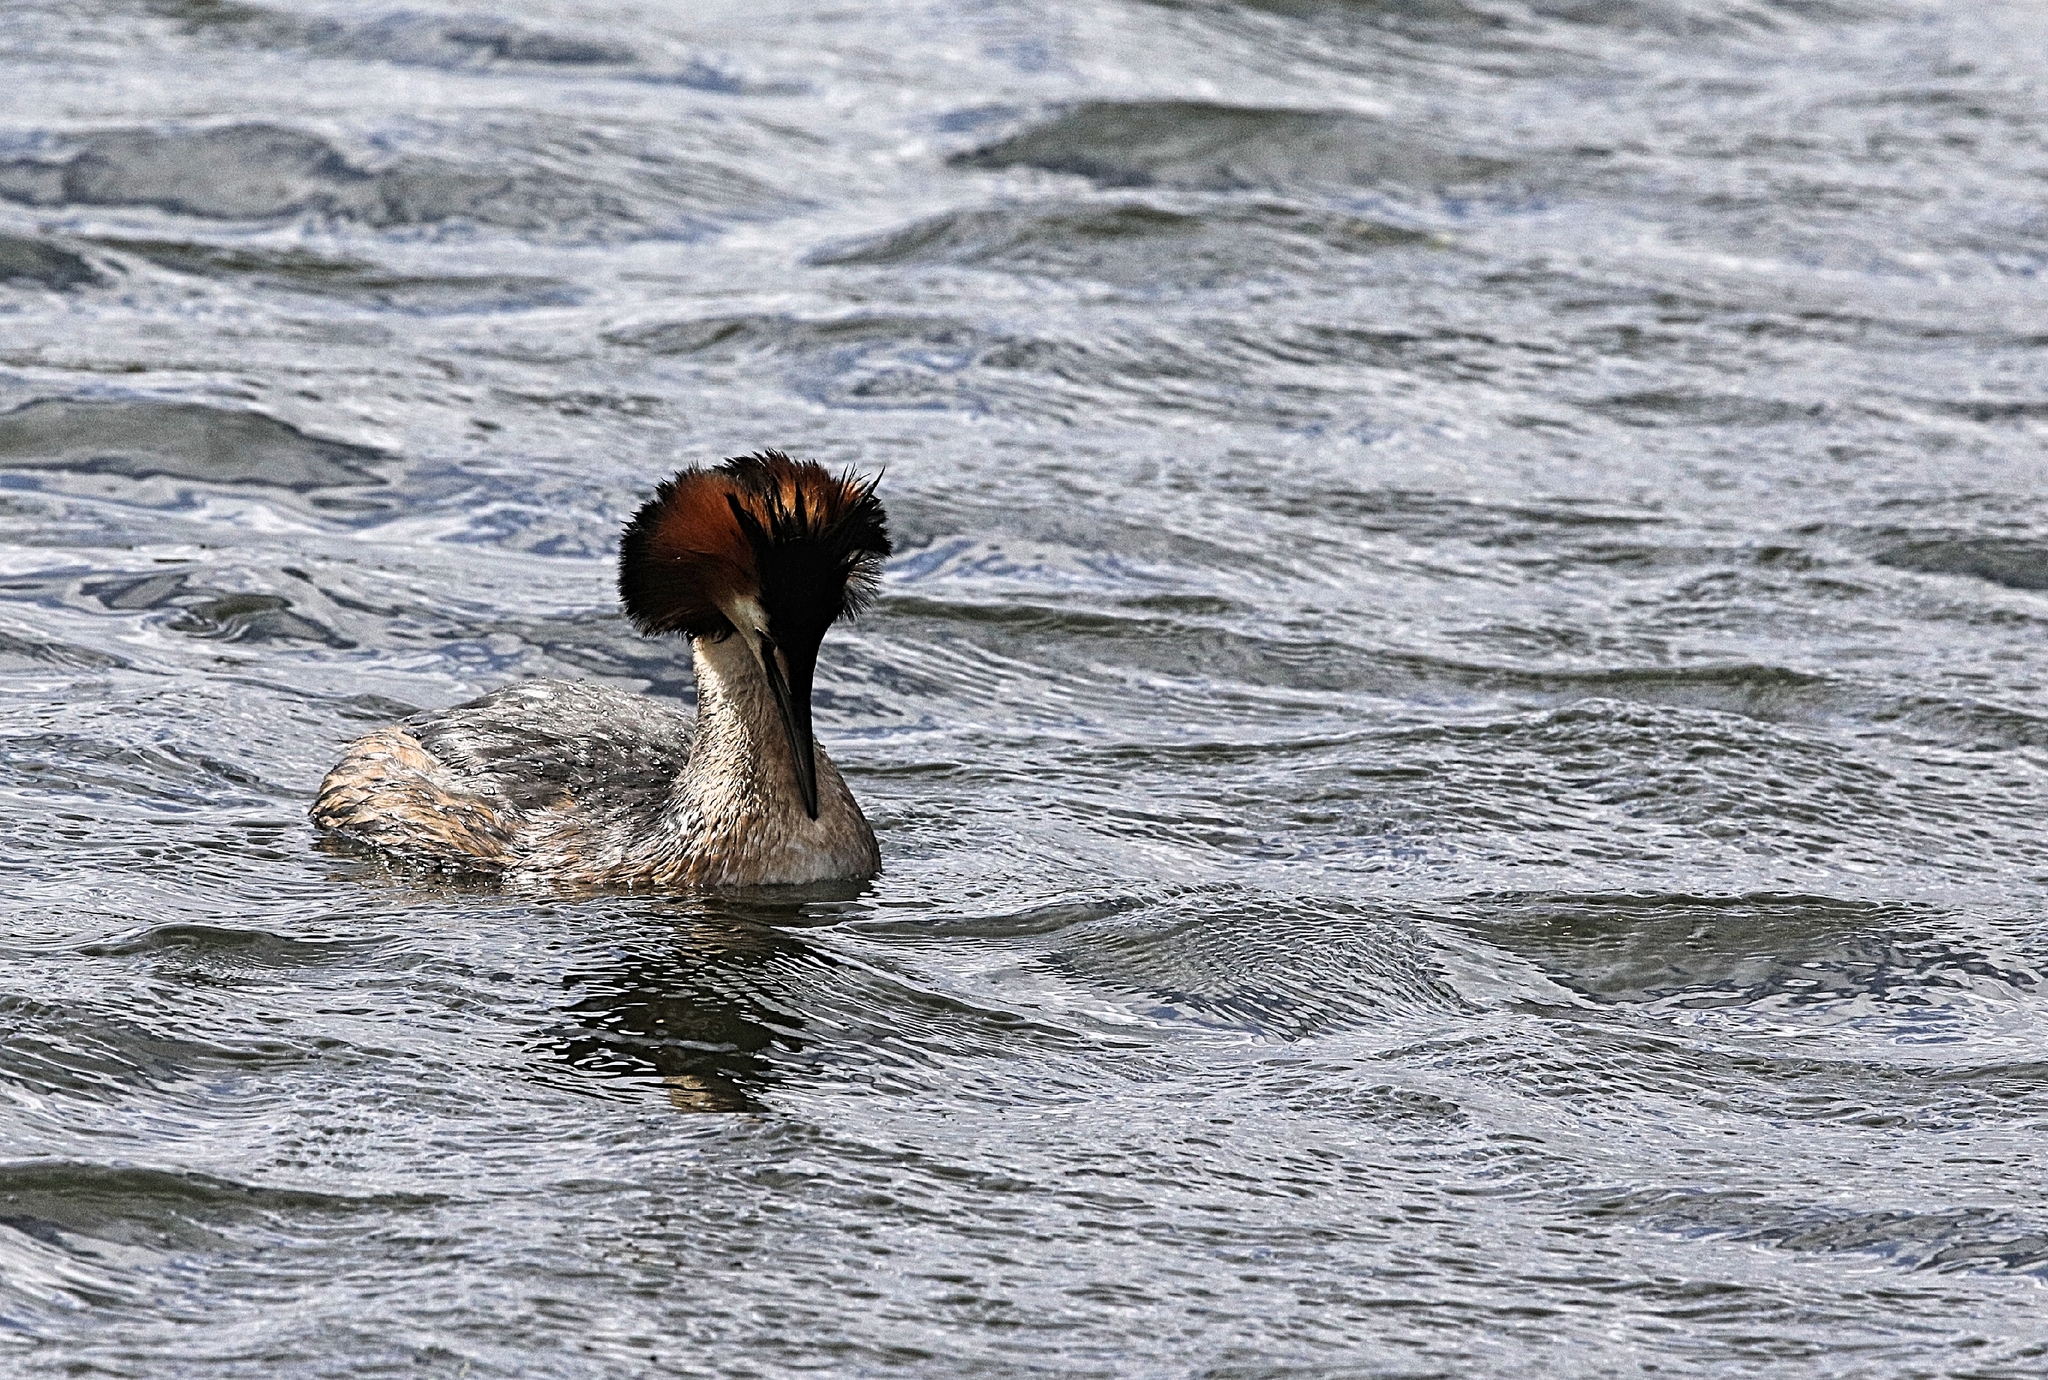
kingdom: Animalia
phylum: Chordata
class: Aves
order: Podicipediformes
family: Podicipedidae
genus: Podiceps
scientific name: Podiceps cristatus
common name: Great crested grebe
